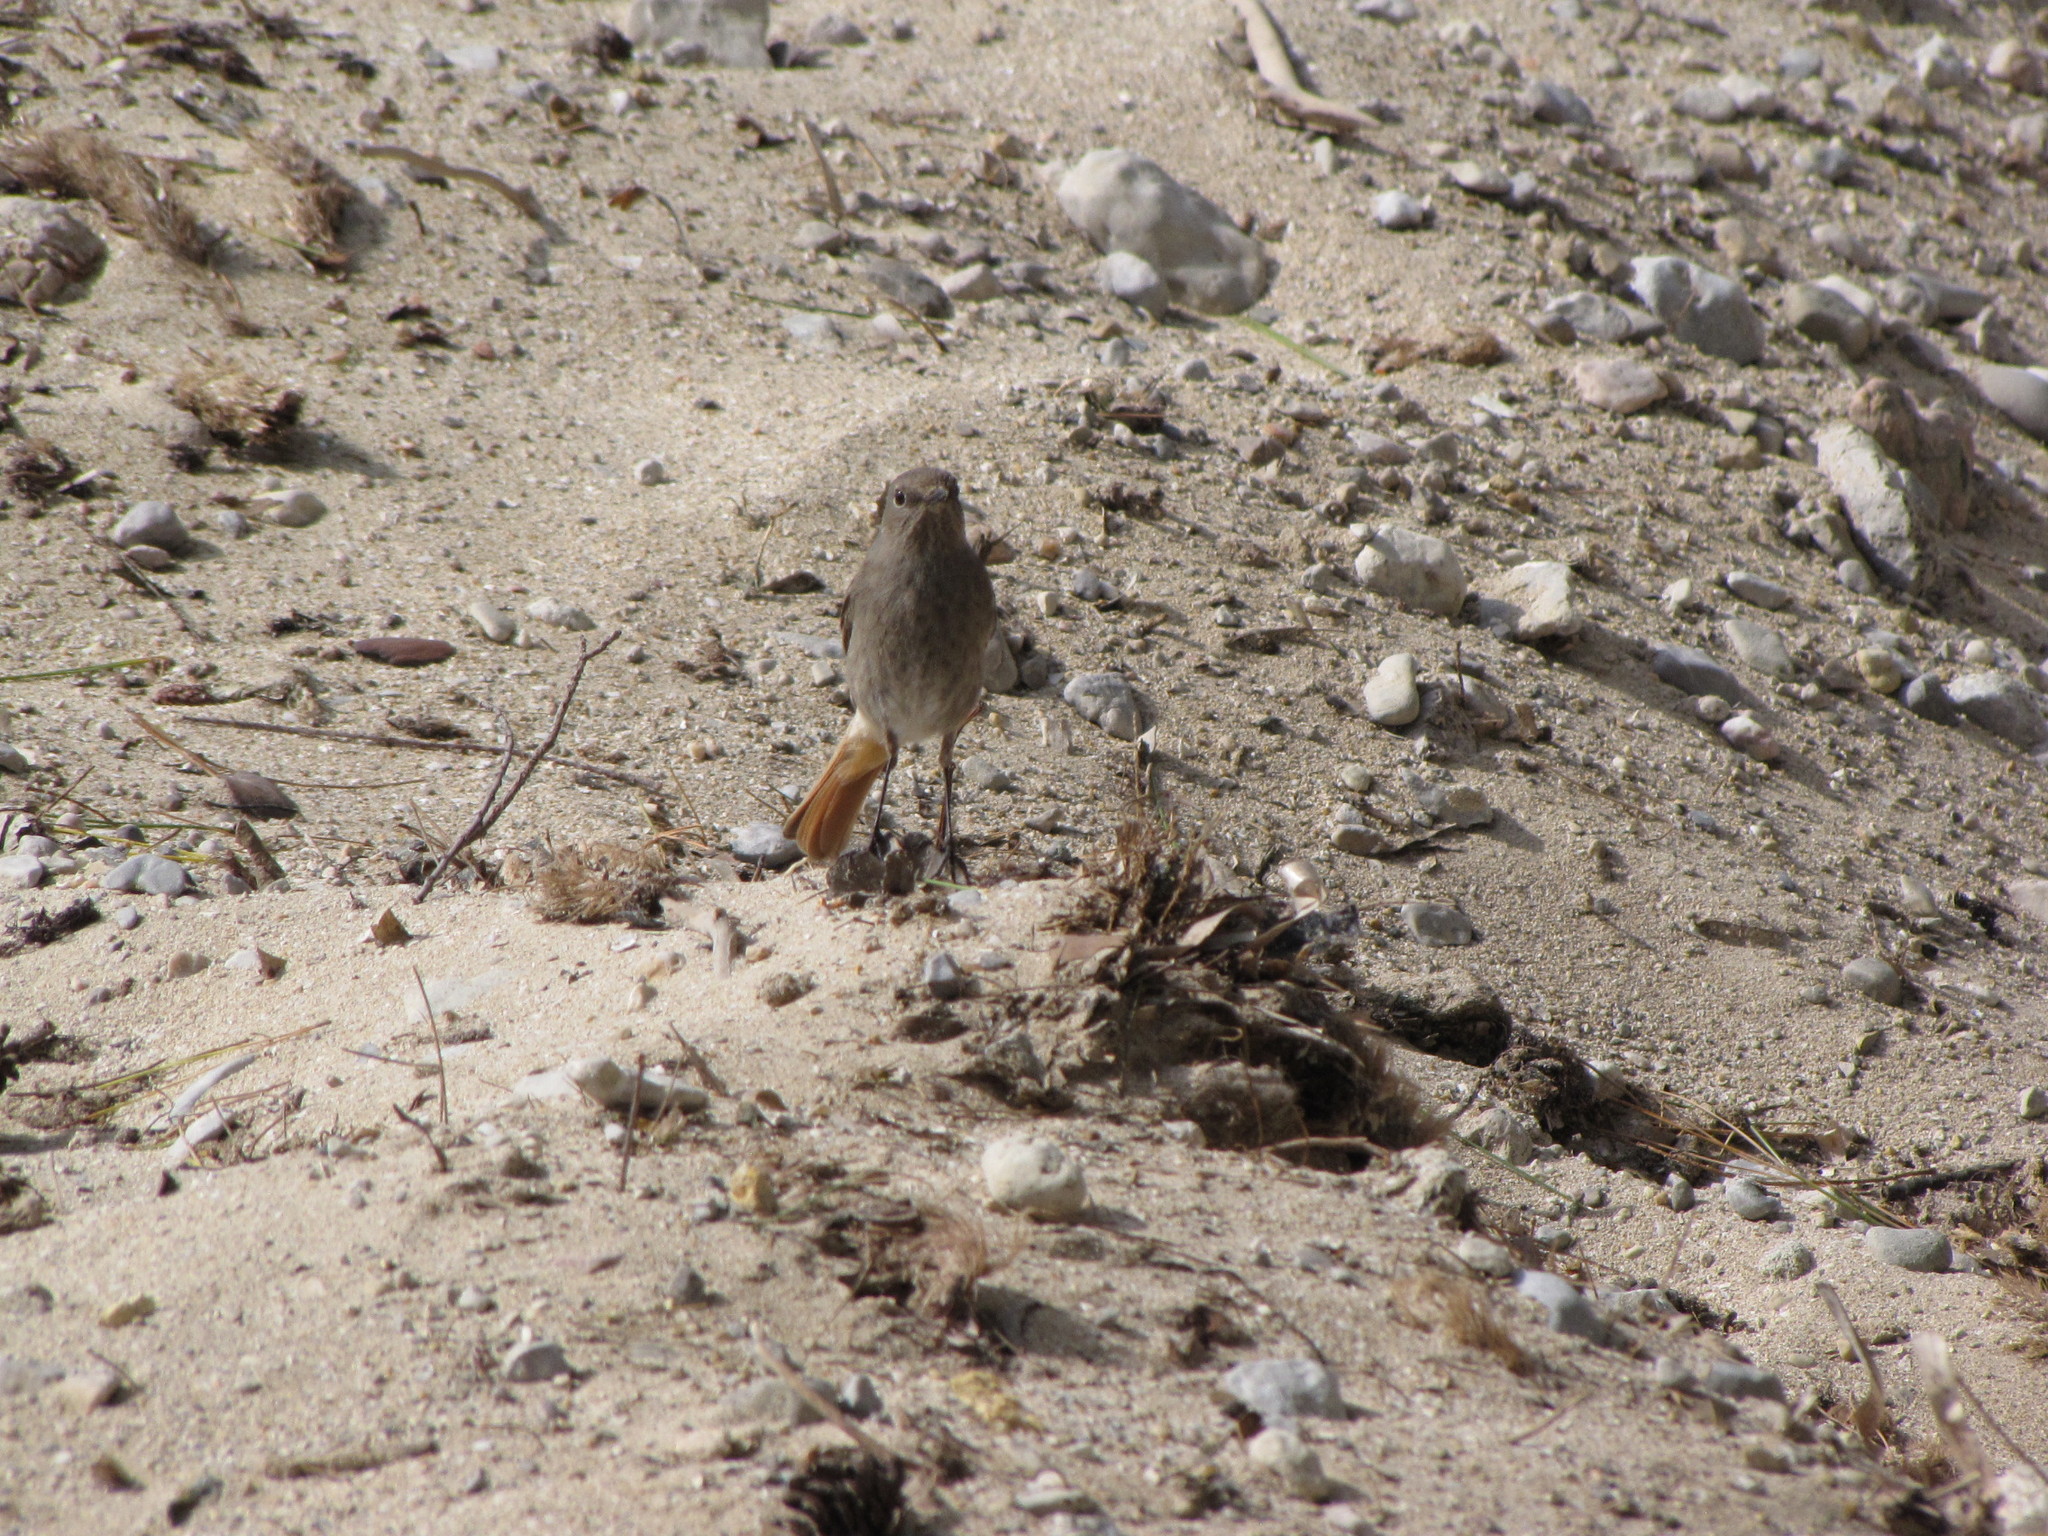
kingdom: Animalia
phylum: Chordata
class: Aves
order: Passeriformes
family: Muscicapidae
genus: Phoenicurus
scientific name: Phoenicurus ochruros
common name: Black redstart
